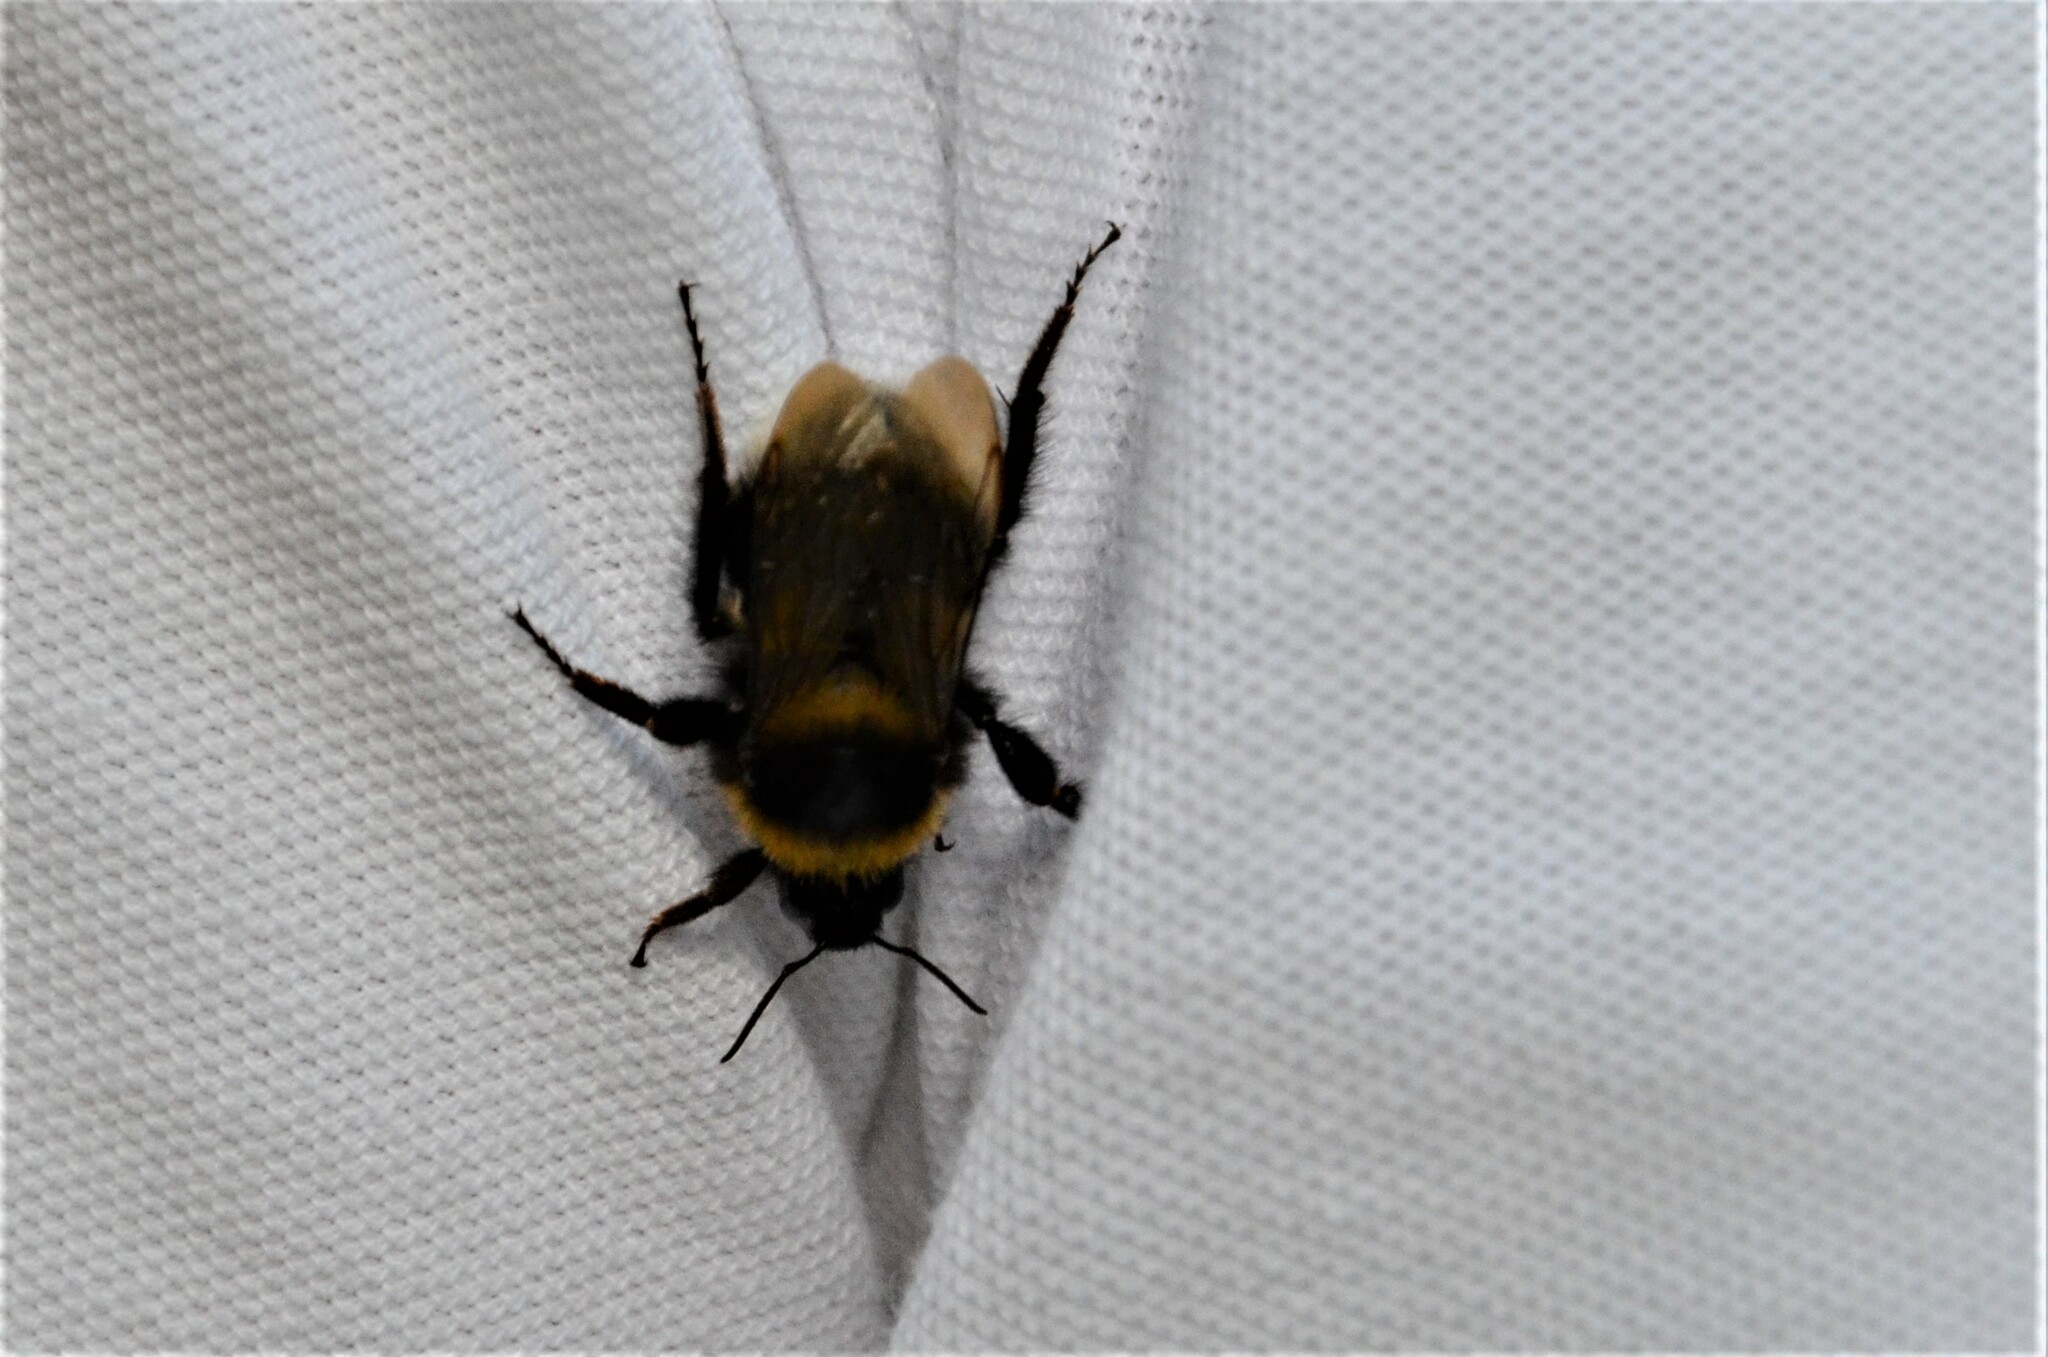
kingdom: Animalia
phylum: Arthropoda
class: Insecta
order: Hymenoptera
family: Apidae
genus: Bombus
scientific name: Bombus hortorum
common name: Garden bumblebee
